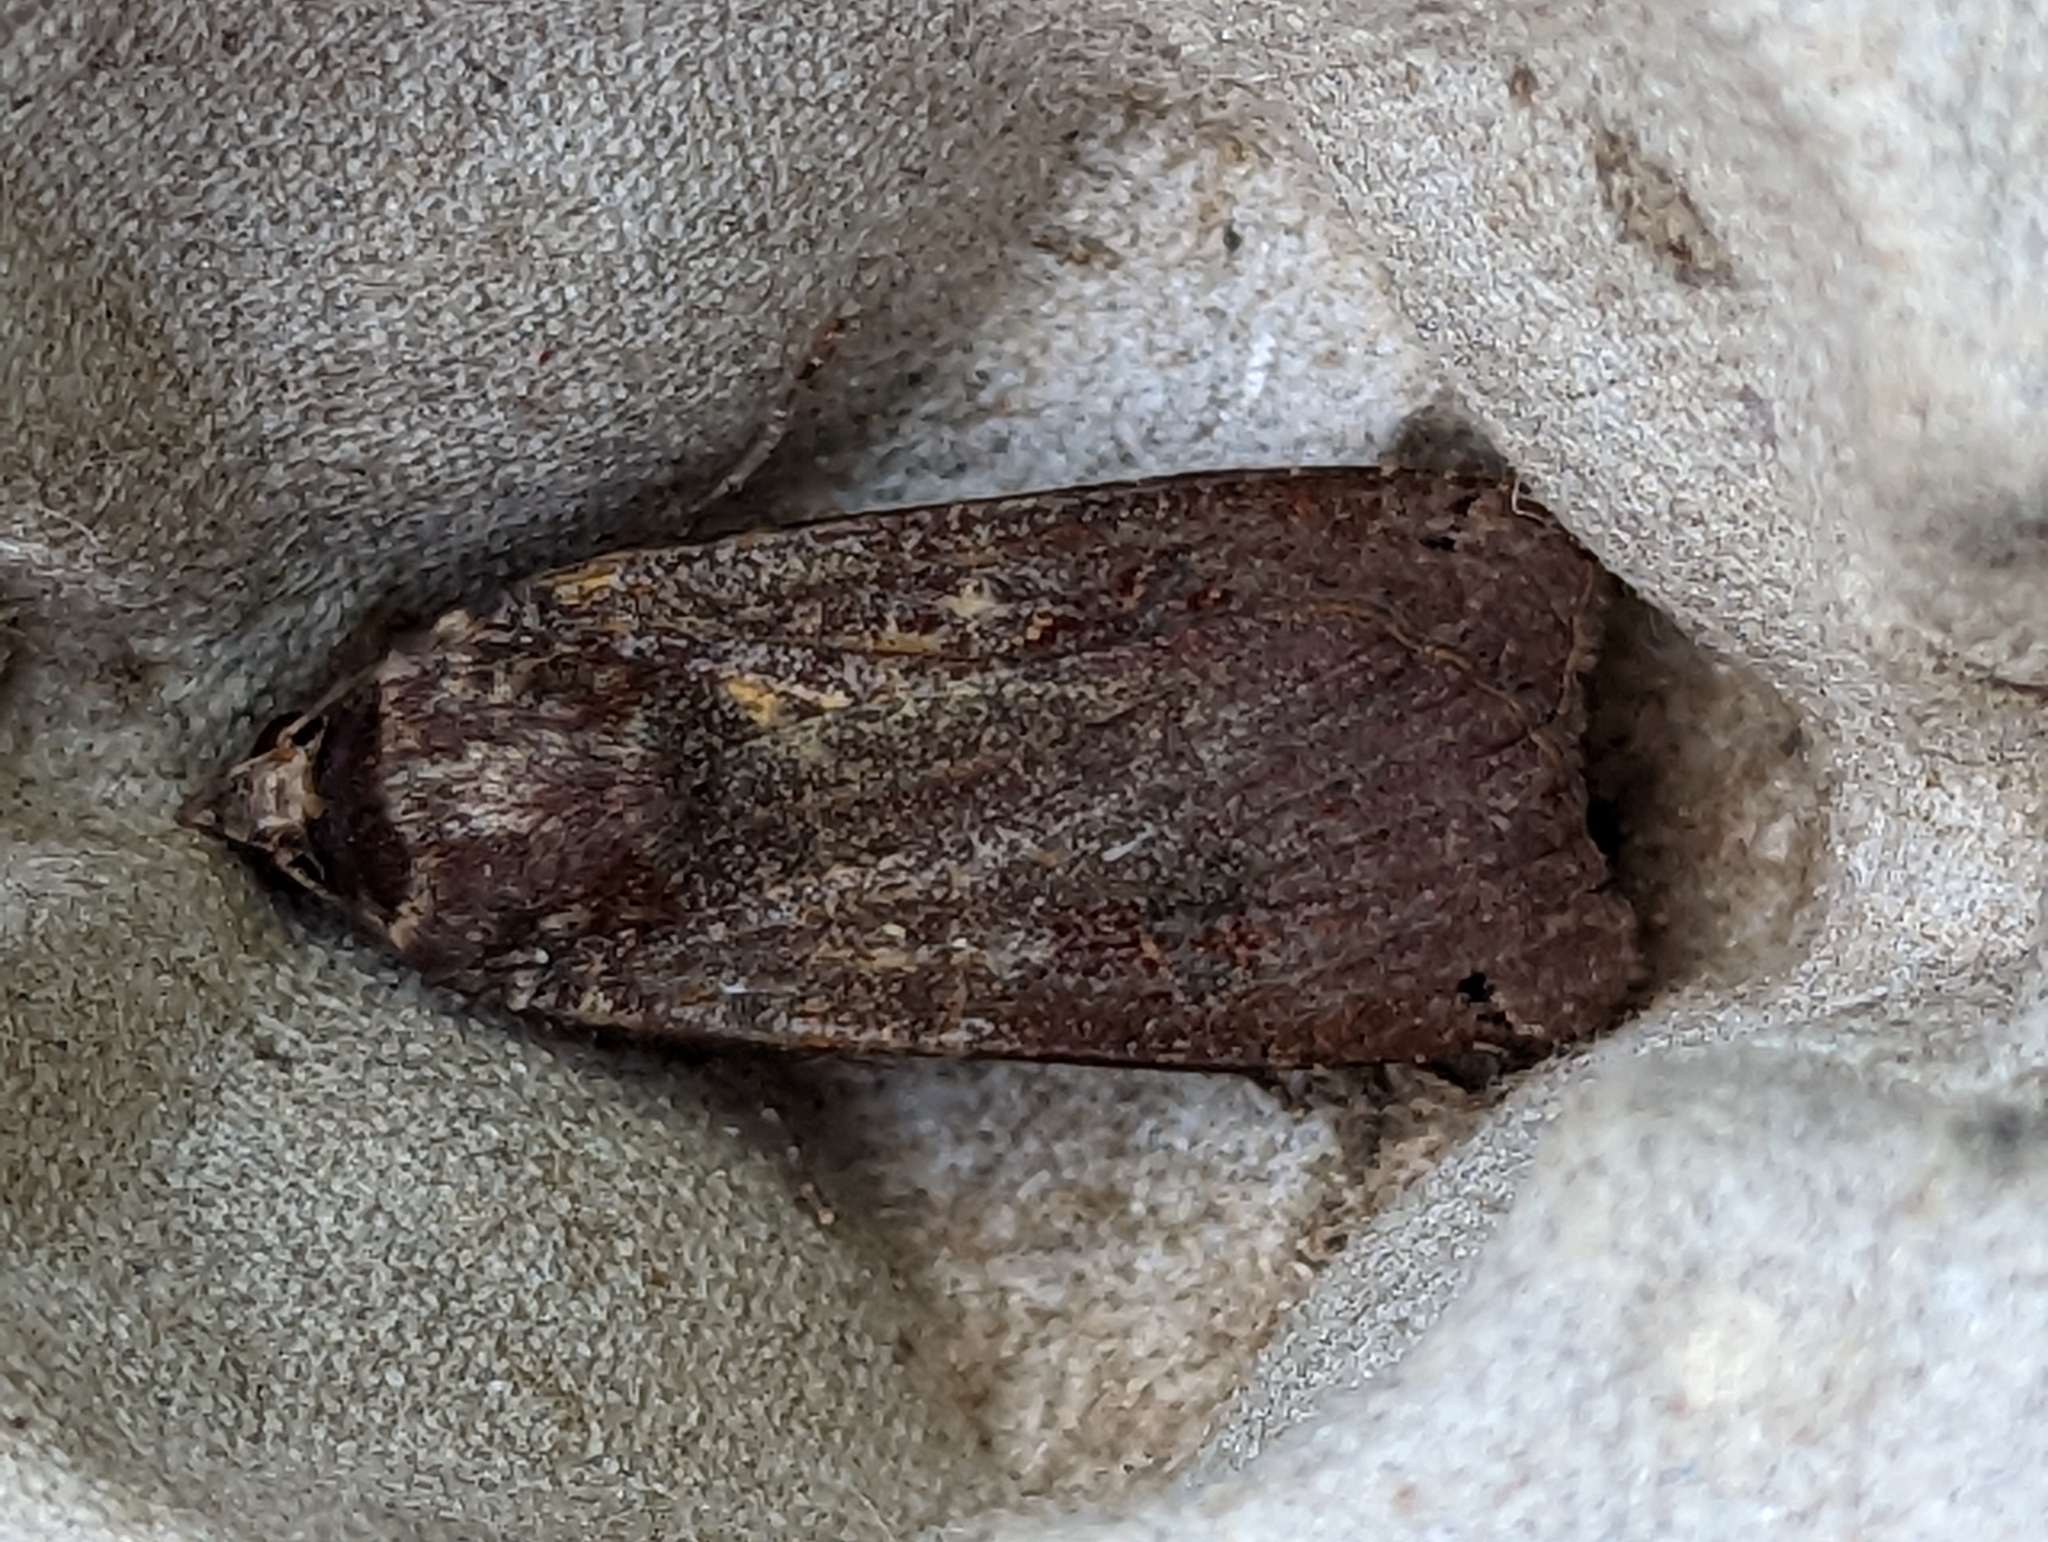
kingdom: Animalia
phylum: Arthropoda
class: Insecta
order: Lepidoptera
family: Noctuidae
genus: Noctua
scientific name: Noctua pronuba
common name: Large yellow underwing
